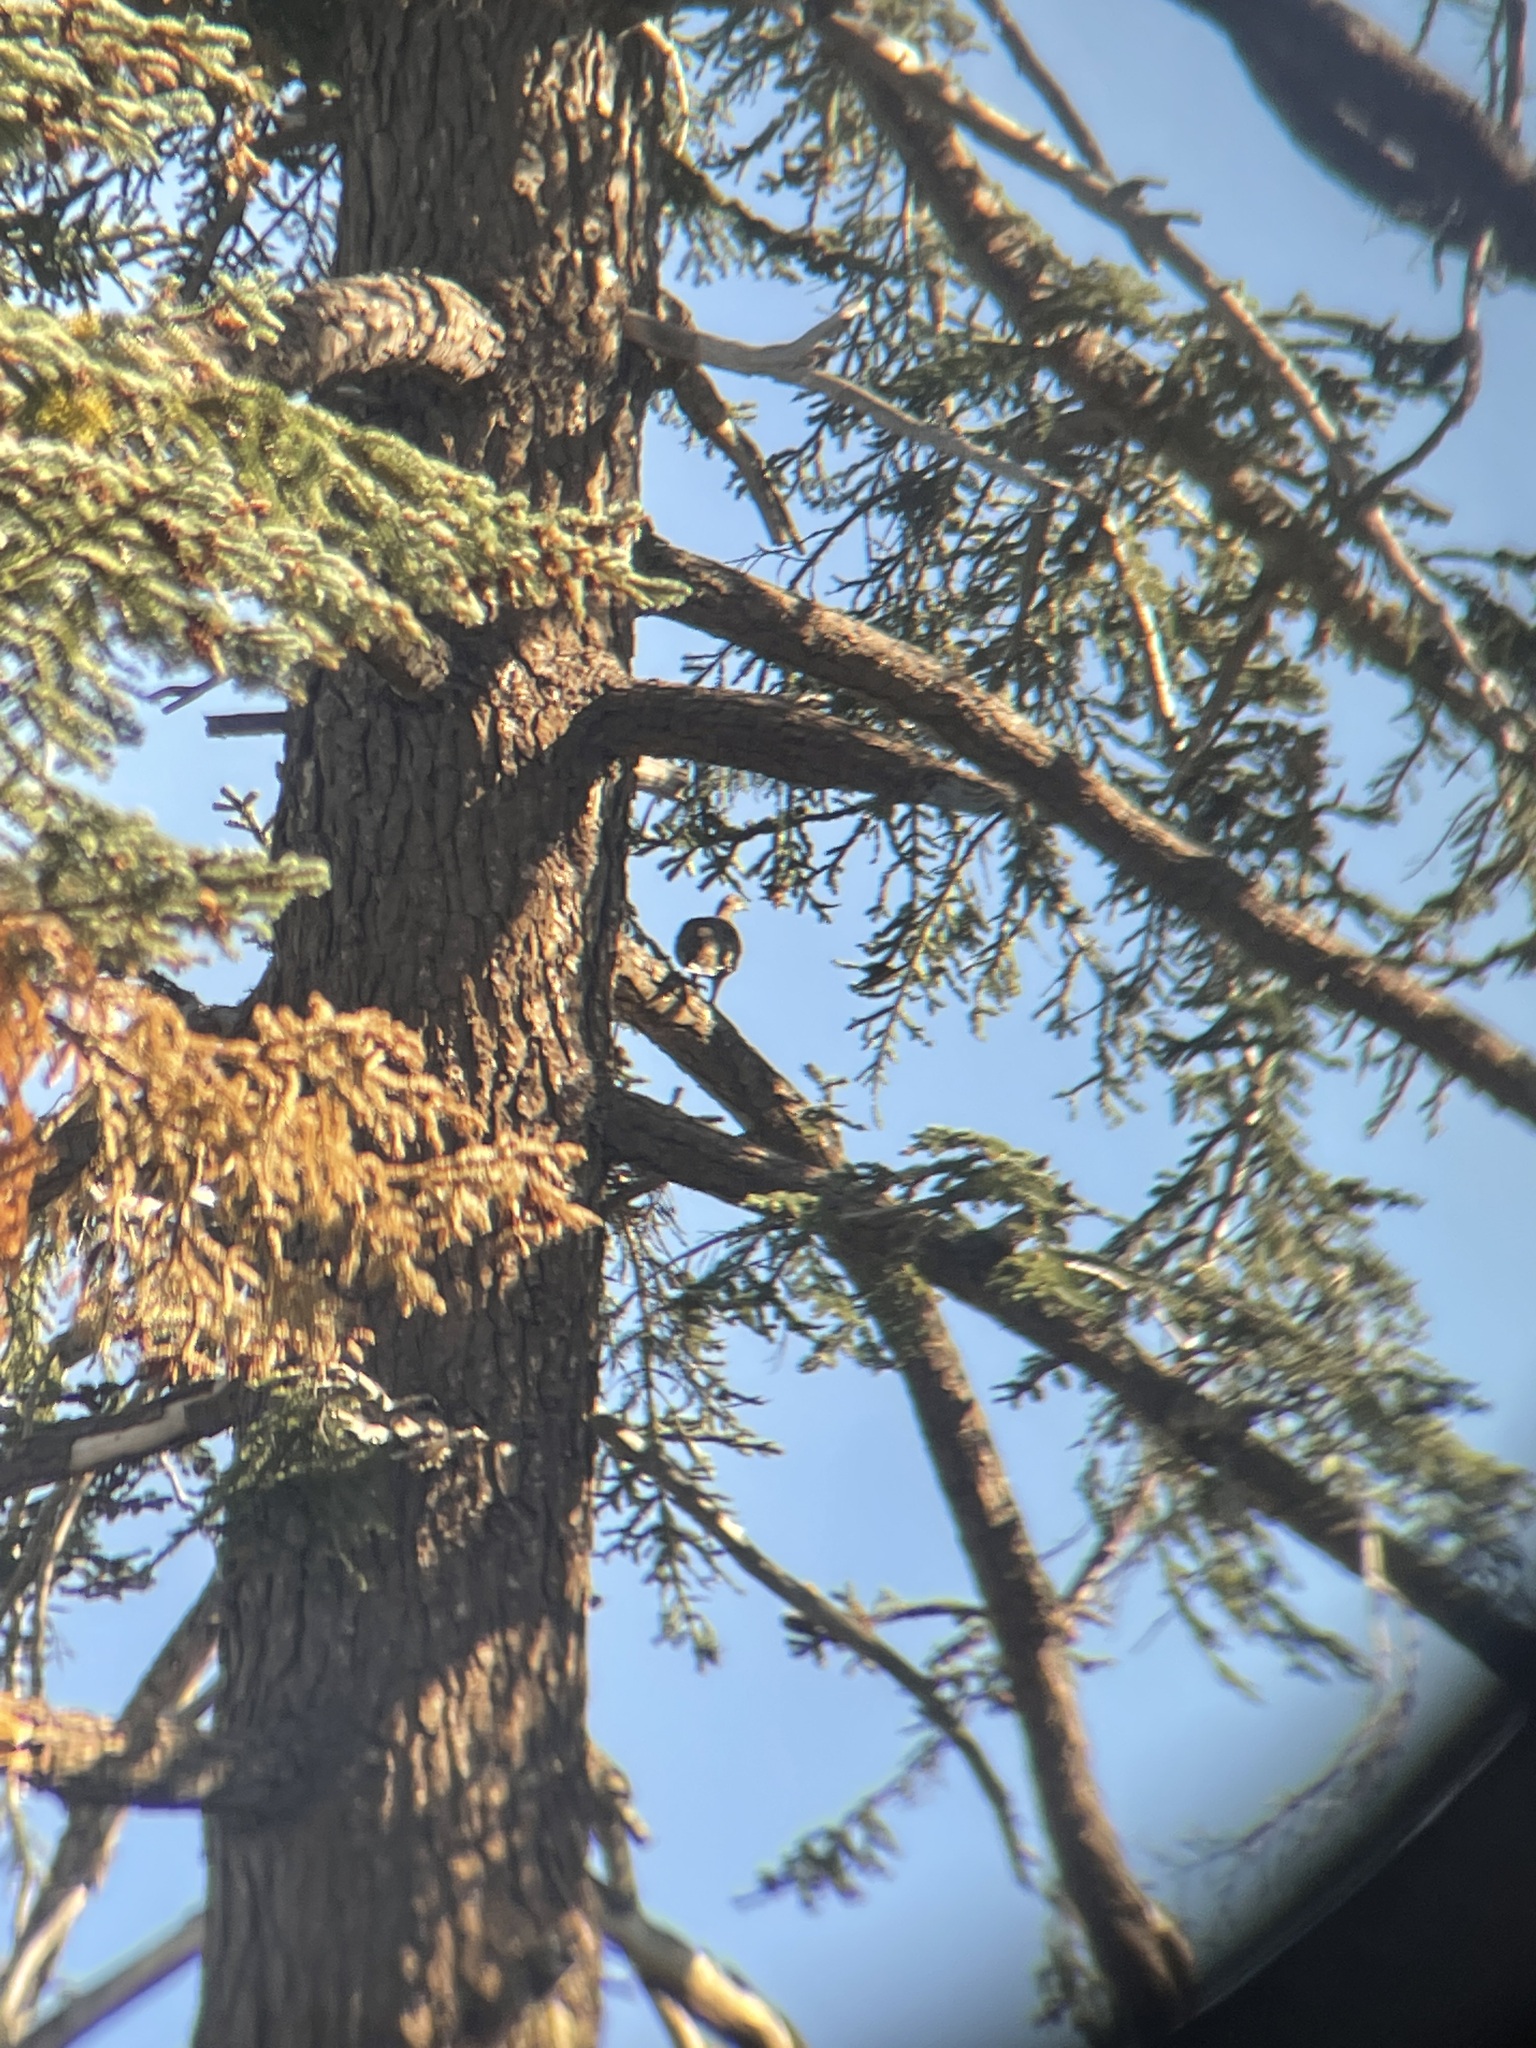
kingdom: Animalia
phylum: Chordata
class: Aves
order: Galliformes
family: Phasianidae
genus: Dendragapus
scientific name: Dendragapus fuliginosus
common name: Sooty grouse
